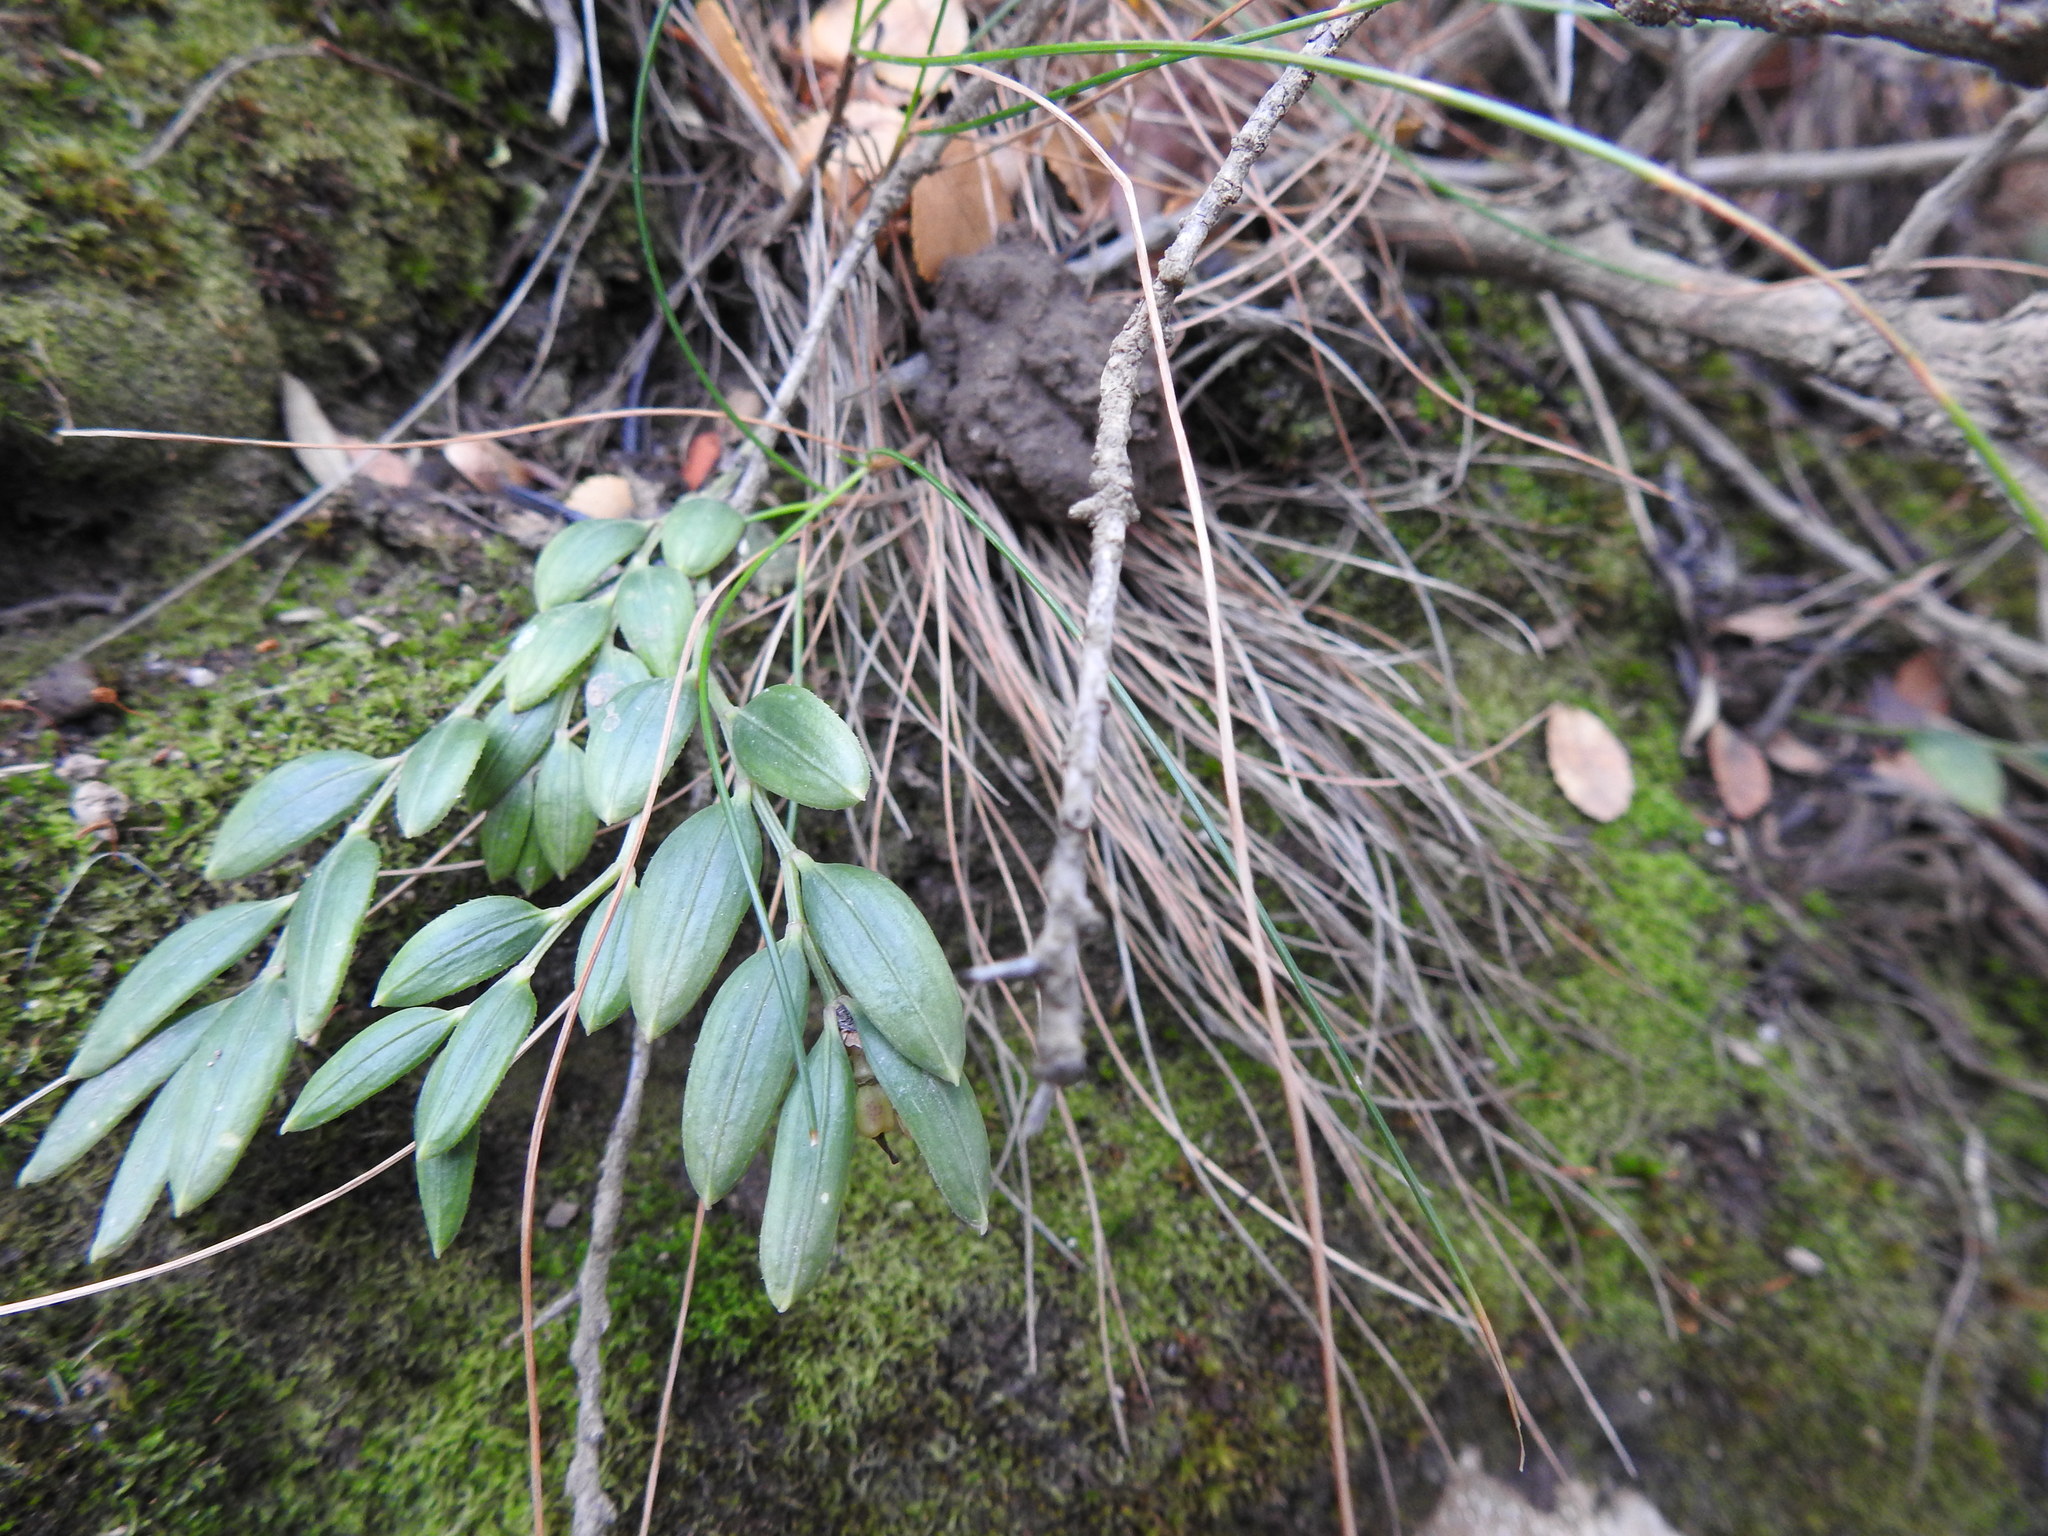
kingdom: Plantae
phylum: Tracheophyta
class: Liliopsida
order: Liliales
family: Alstroemeriaceae
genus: Luzuriaga
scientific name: Luzuriaga marginata
